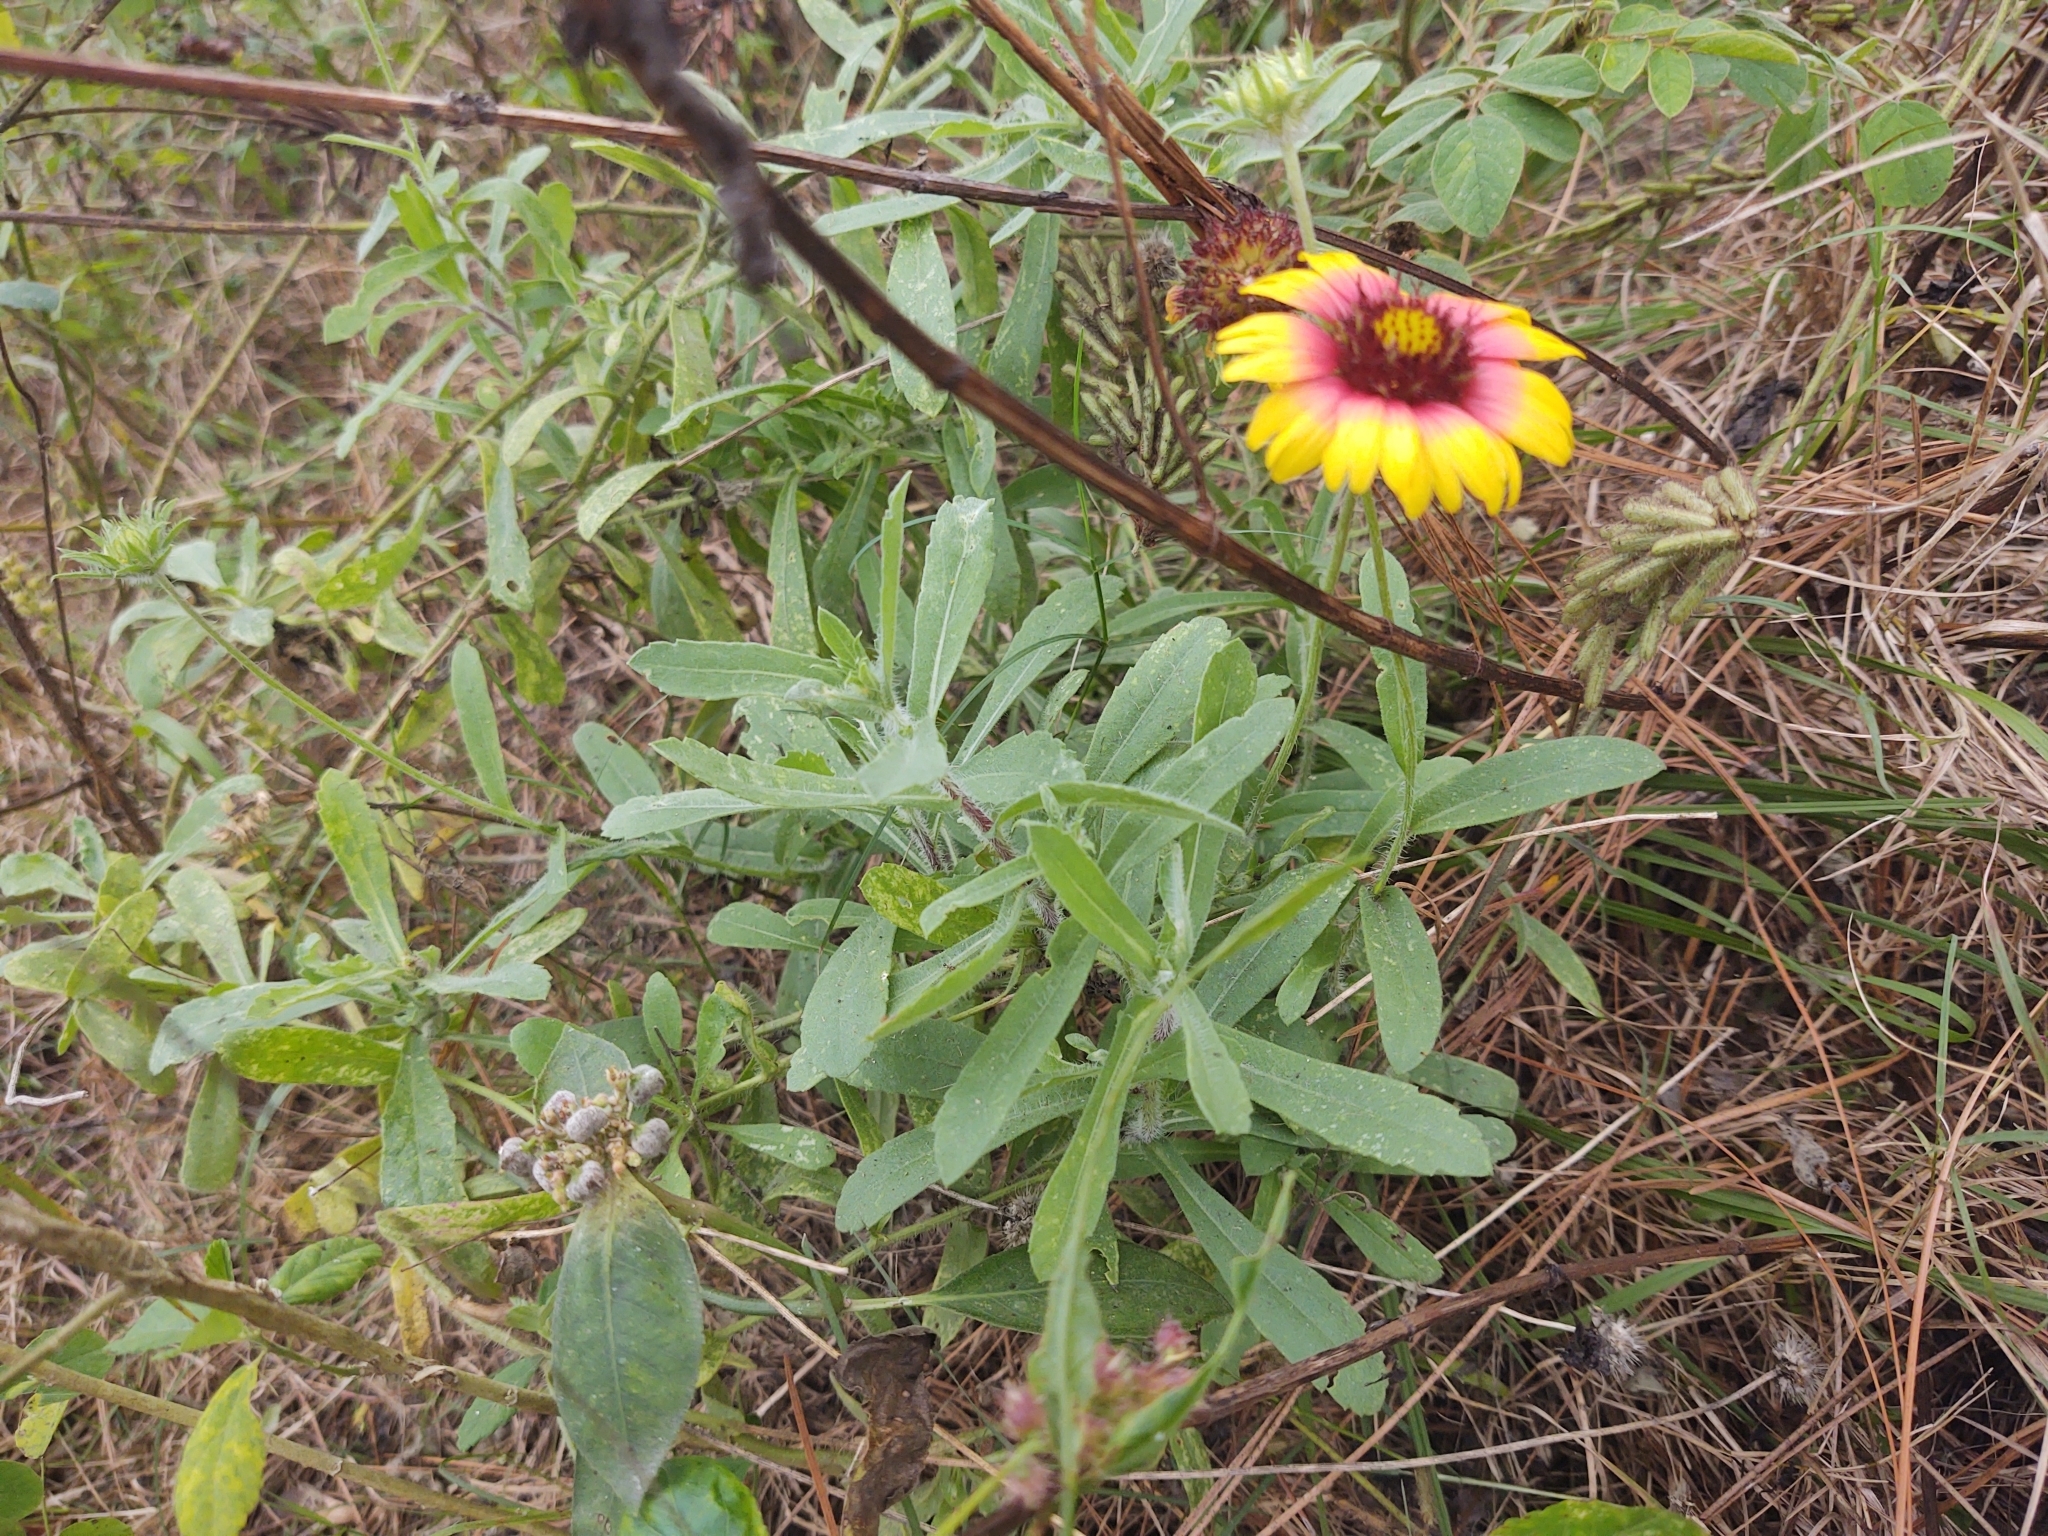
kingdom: Plantae
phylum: Tracheophyta
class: Magnoliopsida
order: Asterales
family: Asteraceae
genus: Gaillardia
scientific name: Gaillardia pulchella
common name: Firewheel
